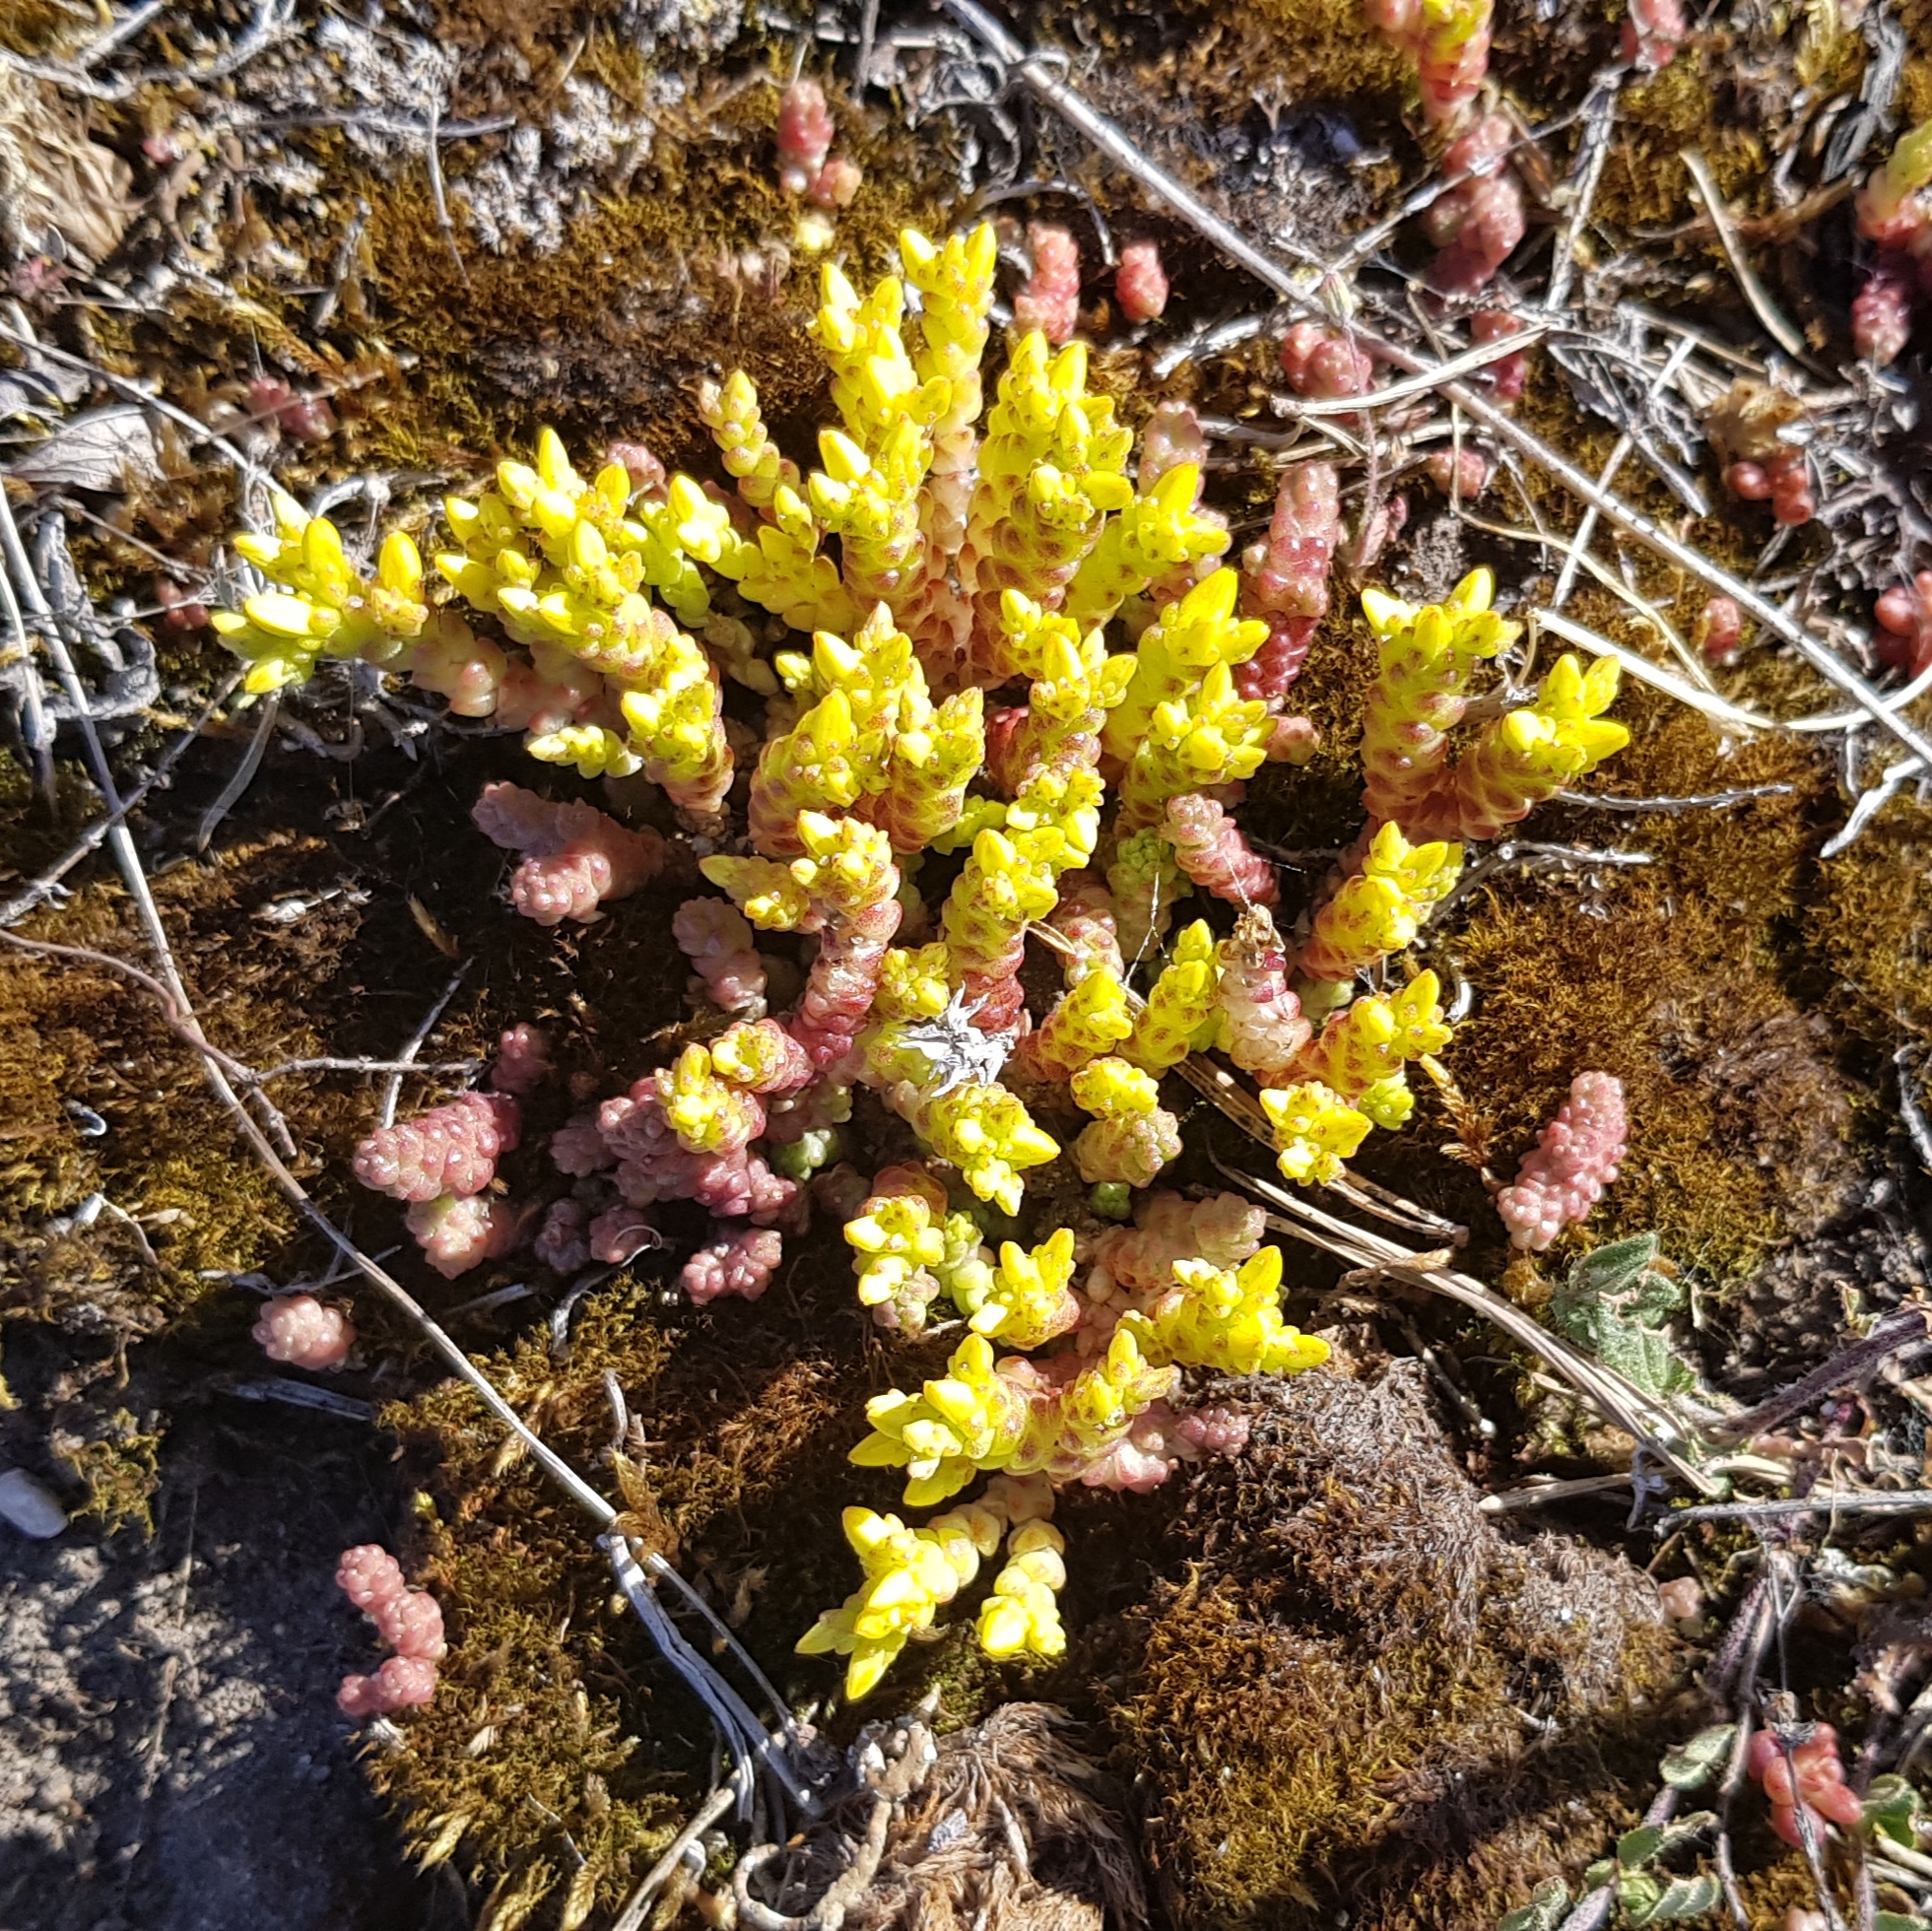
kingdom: Plantae
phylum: Tracheophyta
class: Magnoliopsida
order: Saxifragales
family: Crassulaceae
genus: Sedum
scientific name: Sedum acre
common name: Biting stonecrop
